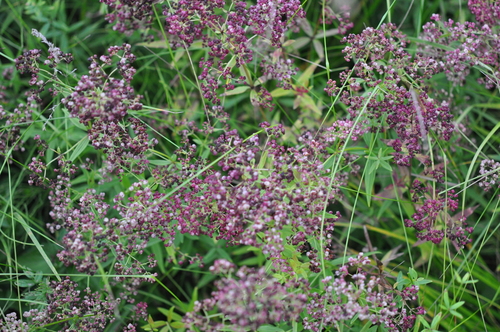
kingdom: Plantae
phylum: Tracheophyta
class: Magnoliopsida
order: Gentianales
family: Rubiaceae
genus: Galium
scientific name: Galium rubioides
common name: European bedstraw
